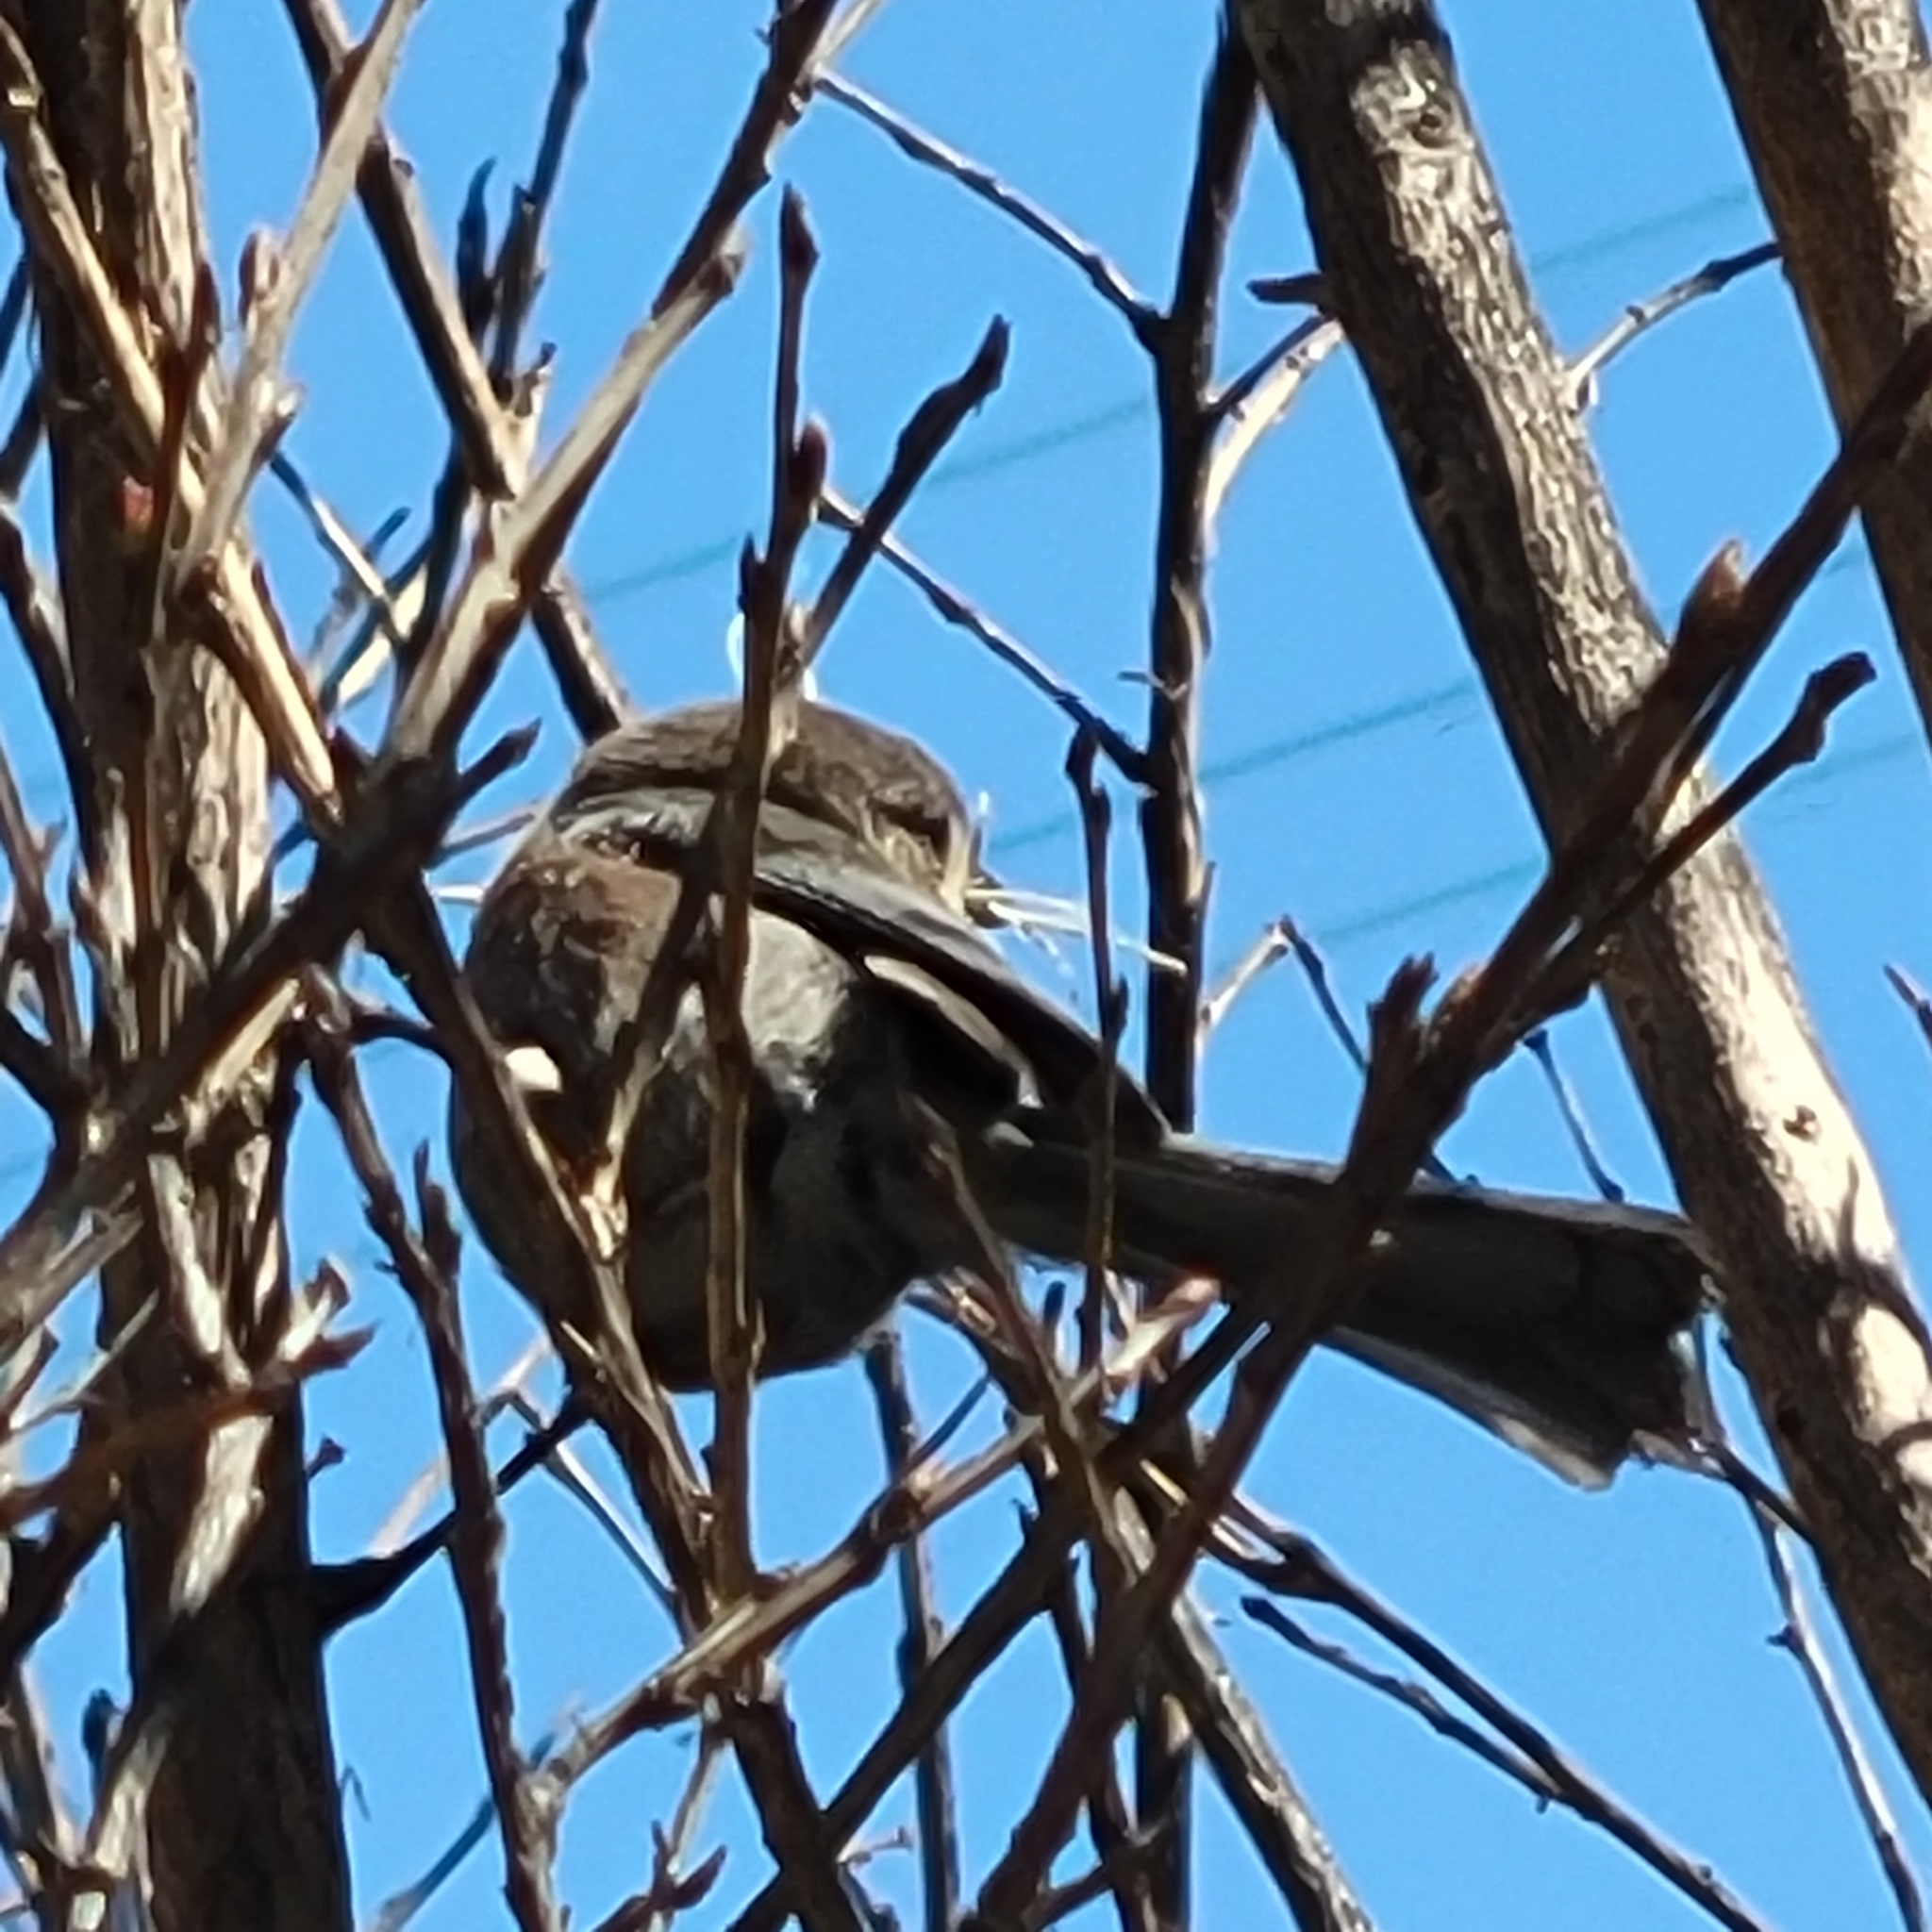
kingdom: Animalia
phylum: Chordata
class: Aves
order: Passeriformes
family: Aegithalidae
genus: Psaltriparus
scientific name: Psaltriparus minimus
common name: American bushtit
